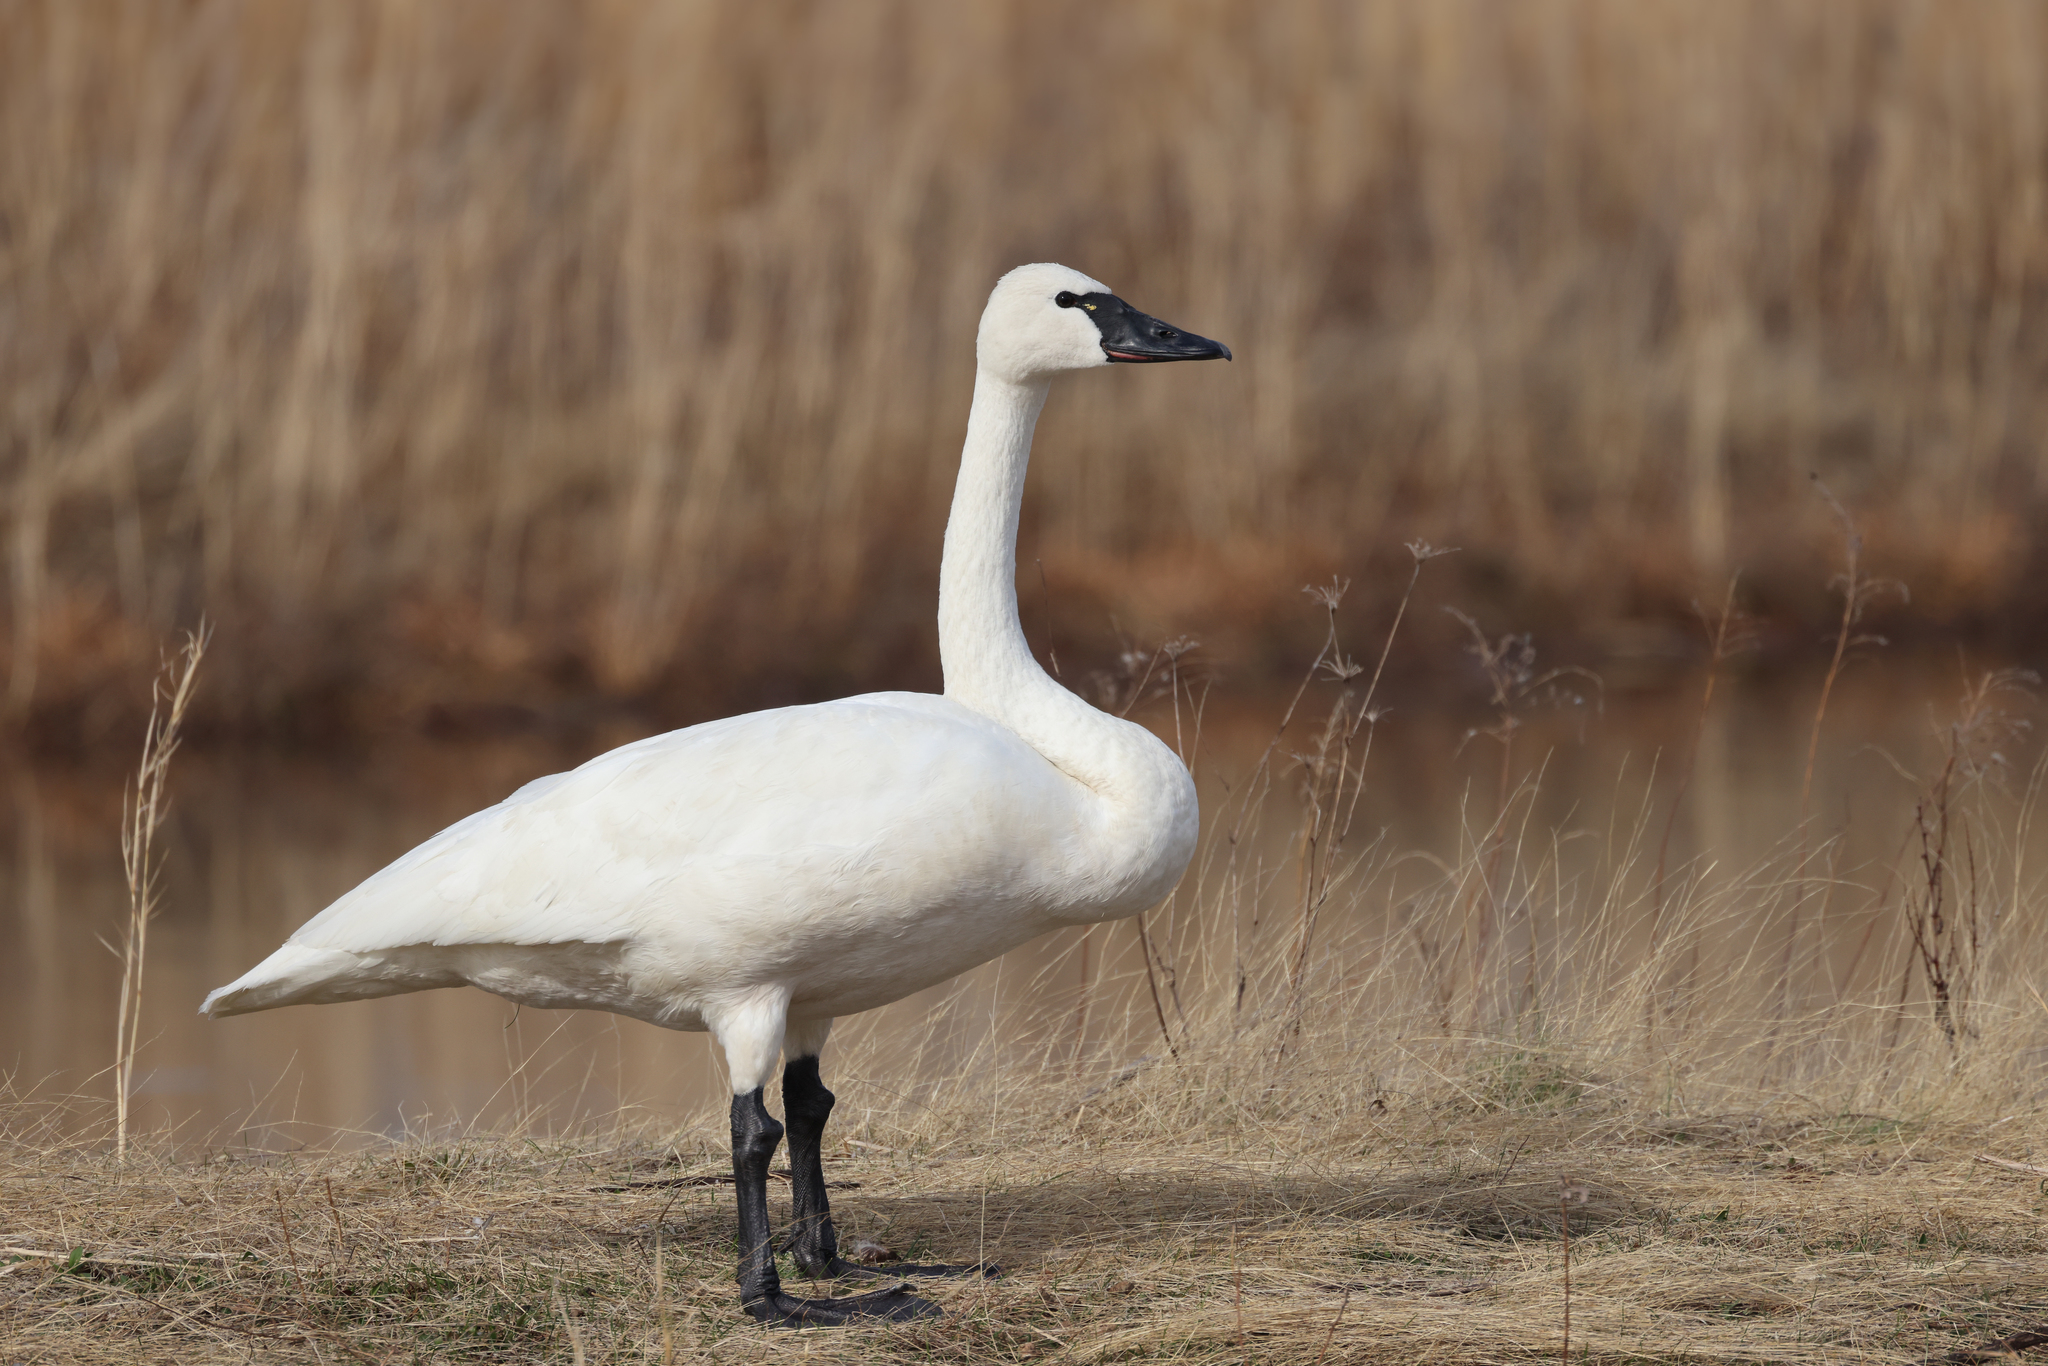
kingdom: Animalia
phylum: Chordata
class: Aves
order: Anseriformes
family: Anatidae
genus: Cygnus
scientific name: Cygnus columbianus
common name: Tundra swan
